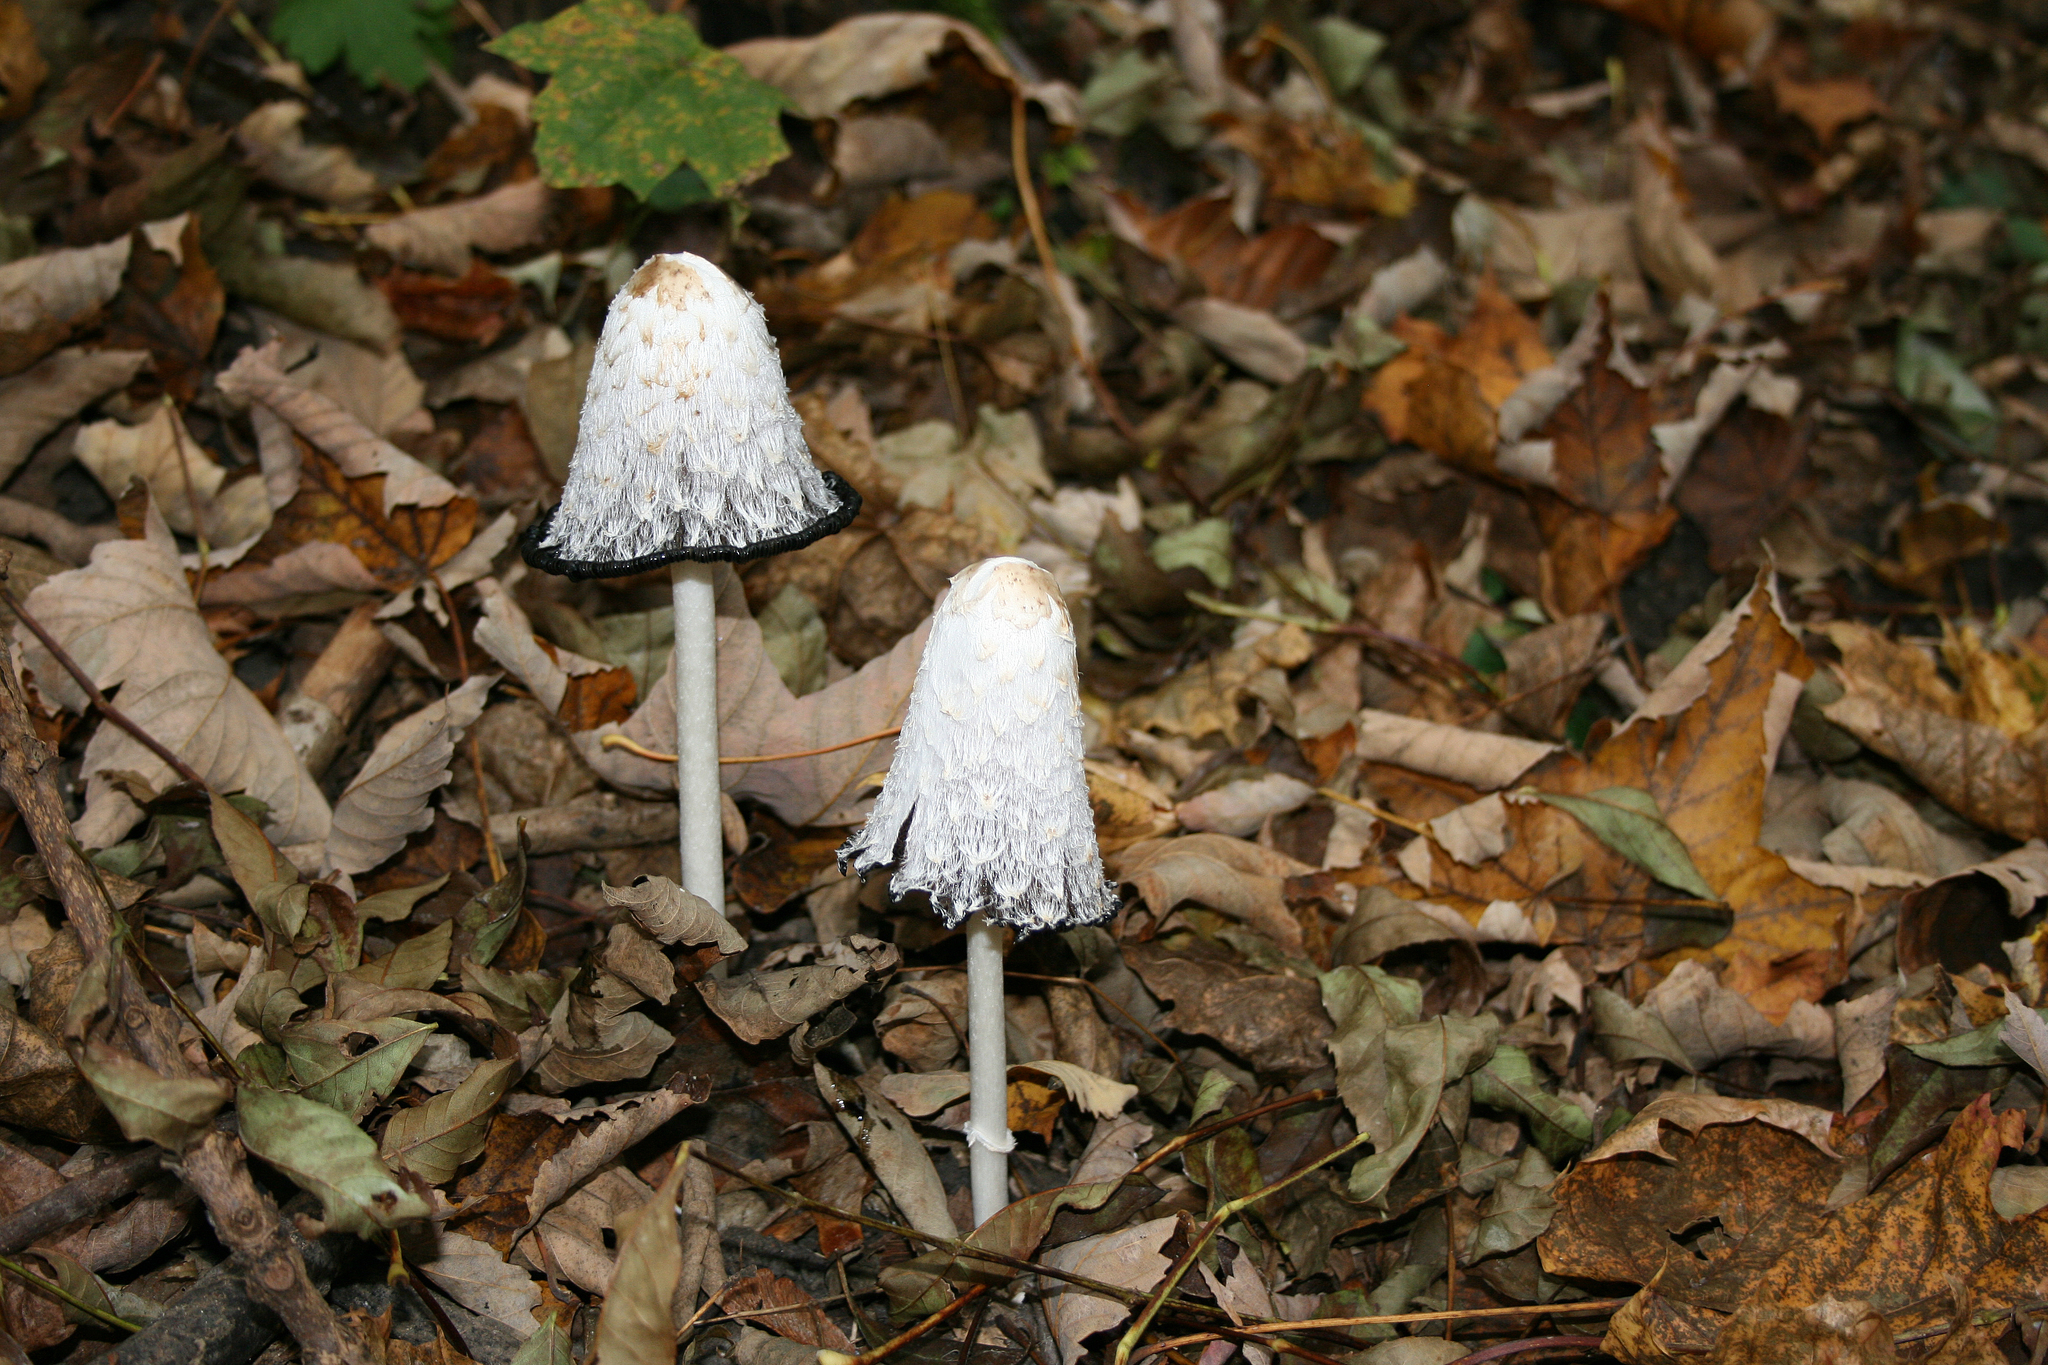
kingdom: Fungi
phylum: Basidiomycota
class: Agaricomycetes
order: Agaricales
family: Agaricaceae
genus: Coprinus
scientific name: Coprinus comatus
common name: Lawyer's wig
